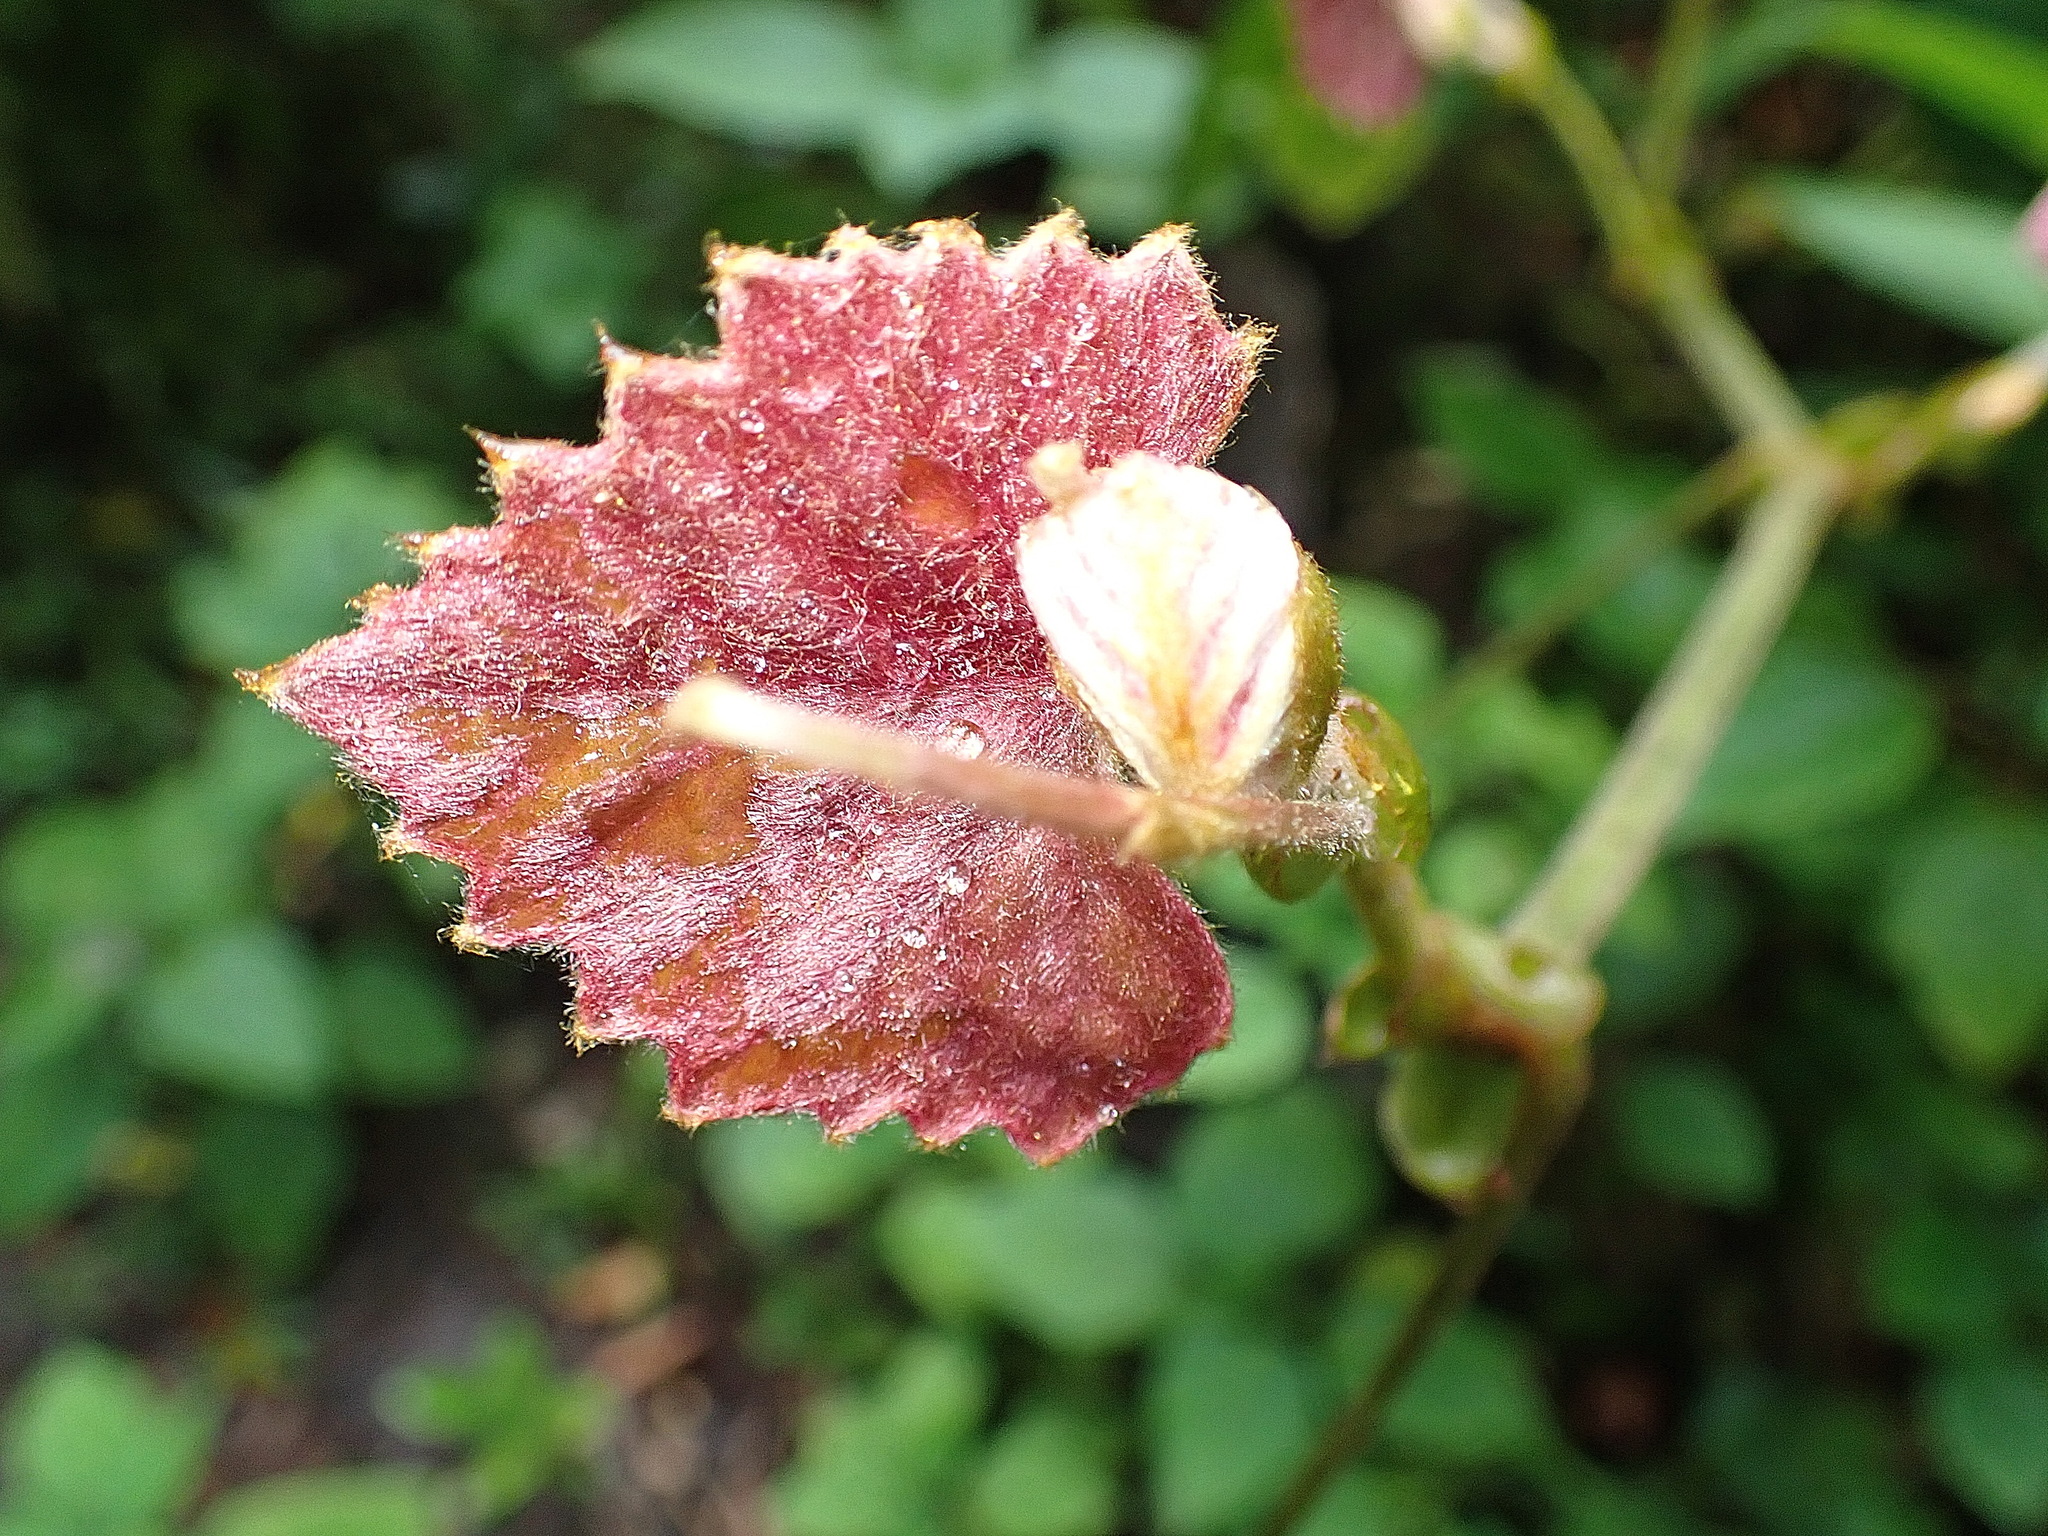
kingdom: Plantae
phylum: Tracheophyta
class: Magnoliopsida
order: Vitales
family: Vitaceae
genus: Rhoicissus
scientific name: Rhoicissus tomentosa
